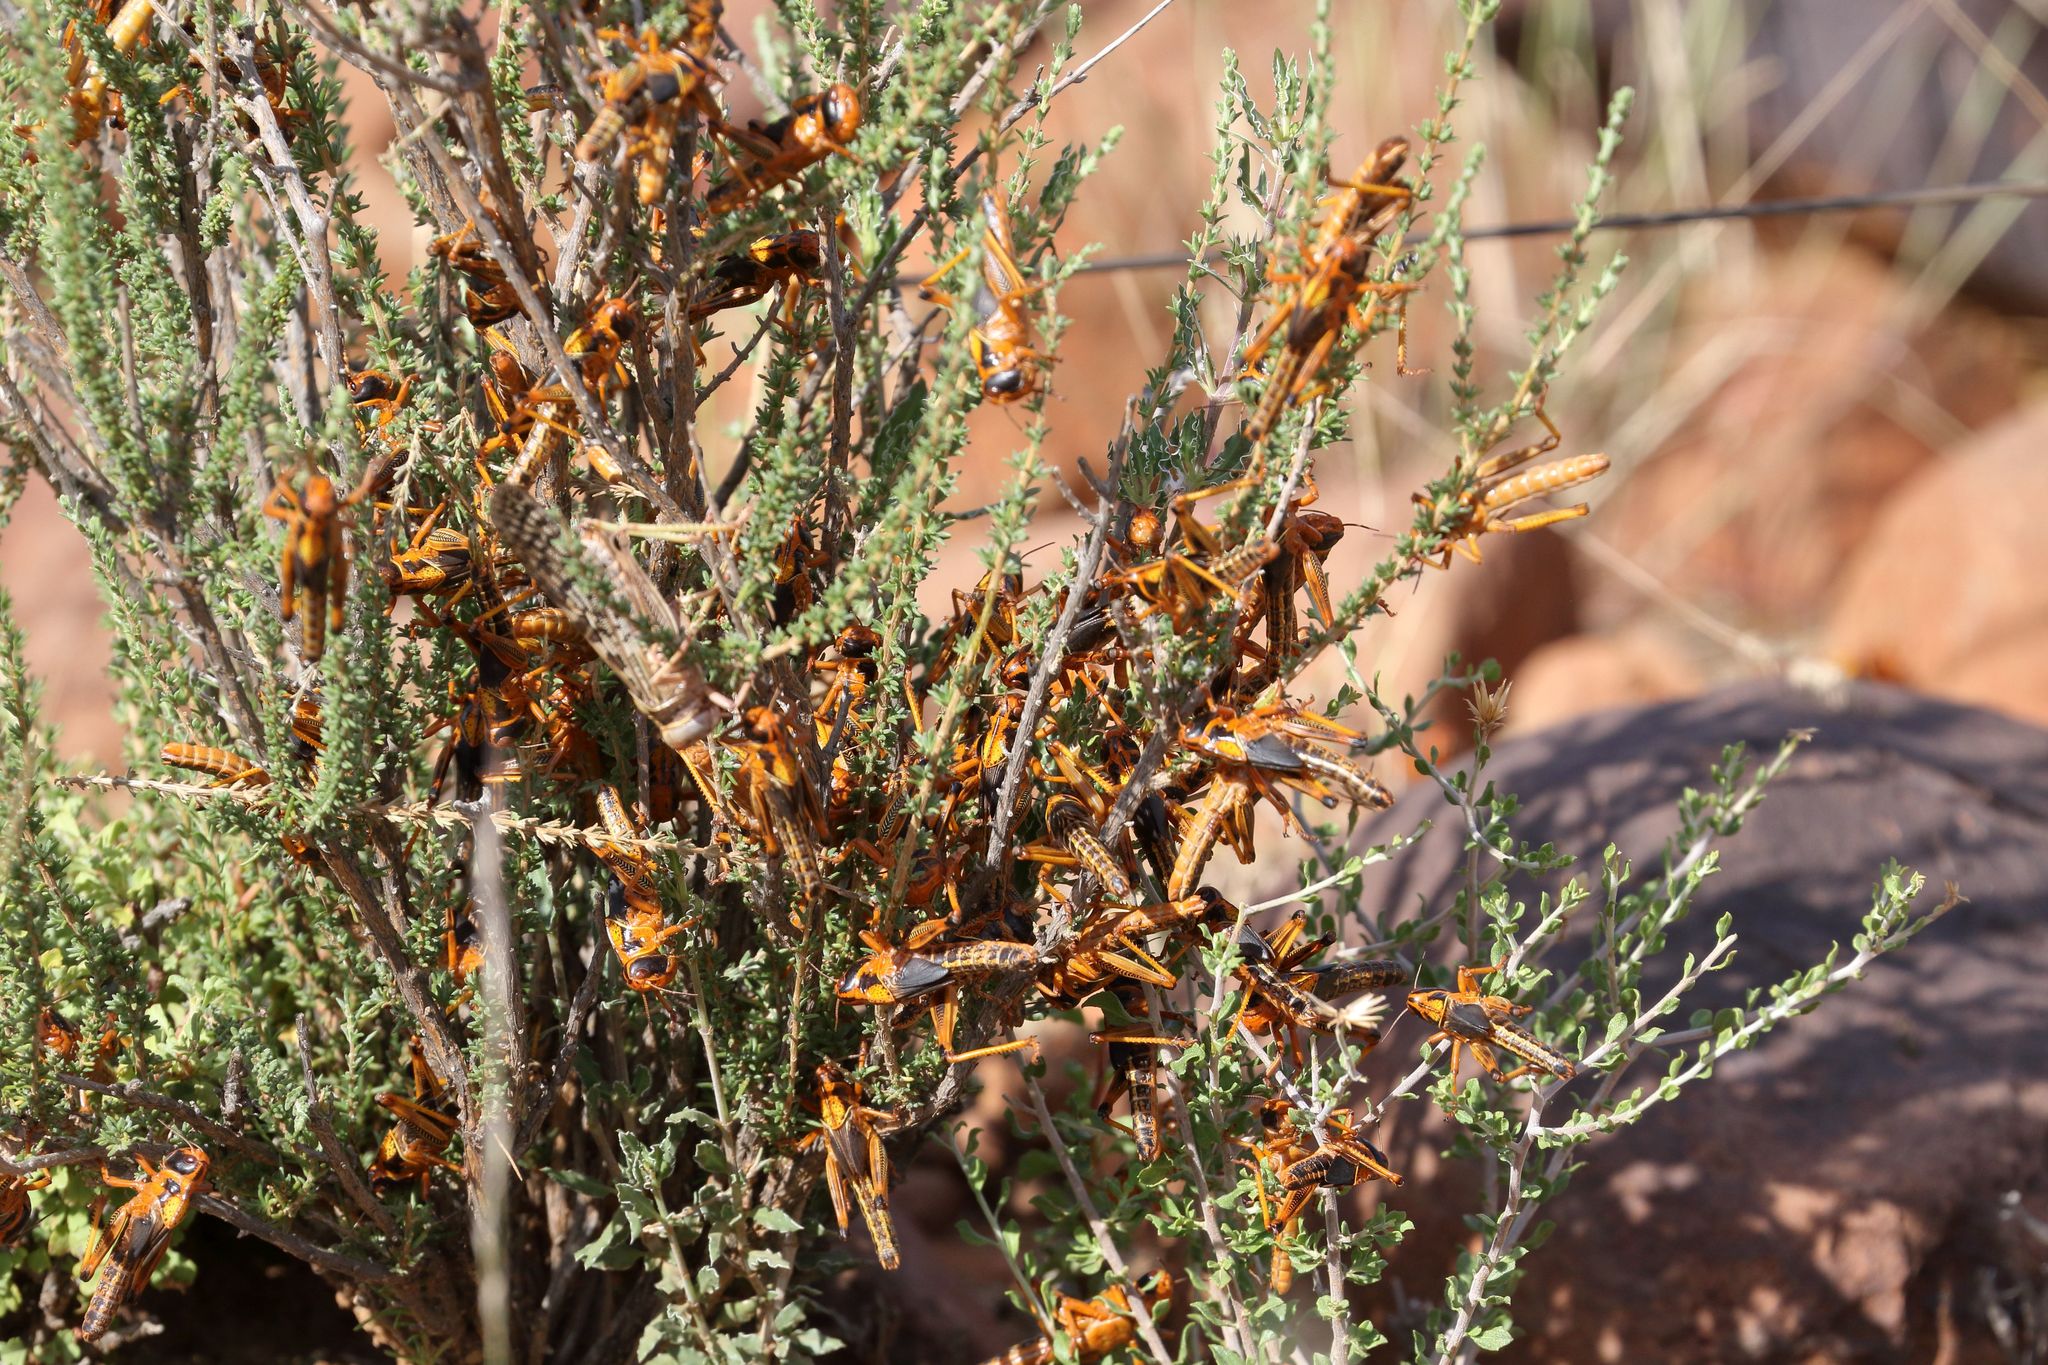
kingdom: Animalia
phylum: Arthropoda
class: Insecta
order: Orthoptera
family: Acrididae
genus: Locustana
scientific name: Locustana pardalina
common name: Brown locust
